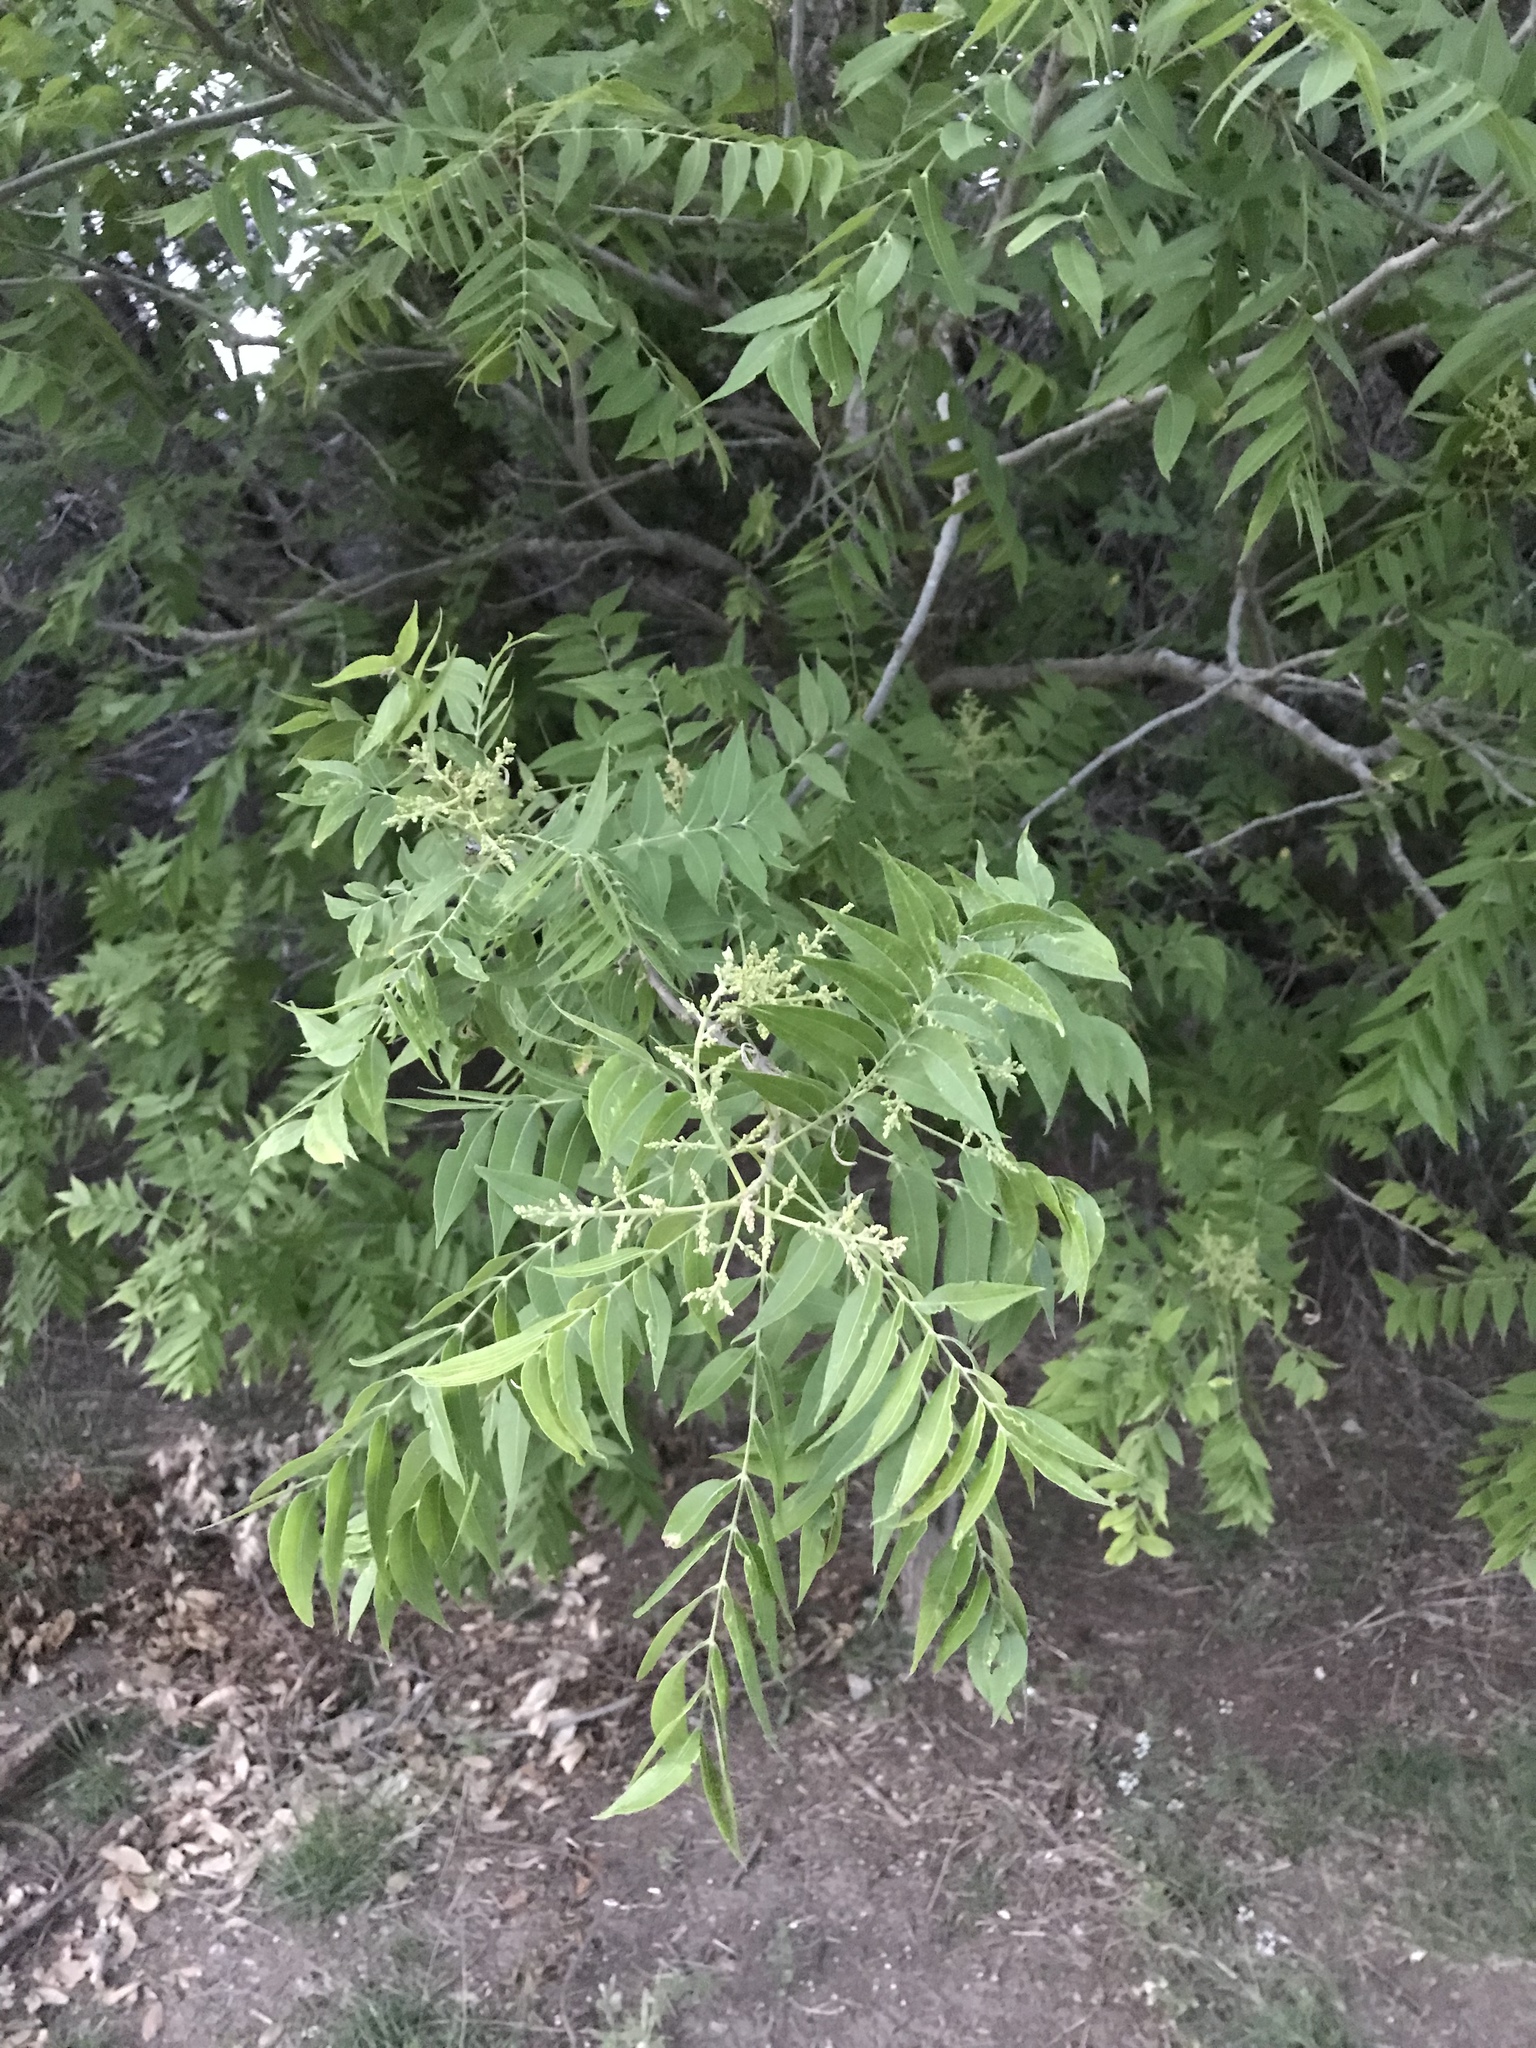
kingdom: Plantae
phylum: Tracheophyta
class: Magnoliopsida
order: Sapindales
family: Sapindaceae
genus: Sapindus
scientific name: Sapindus drummondii
